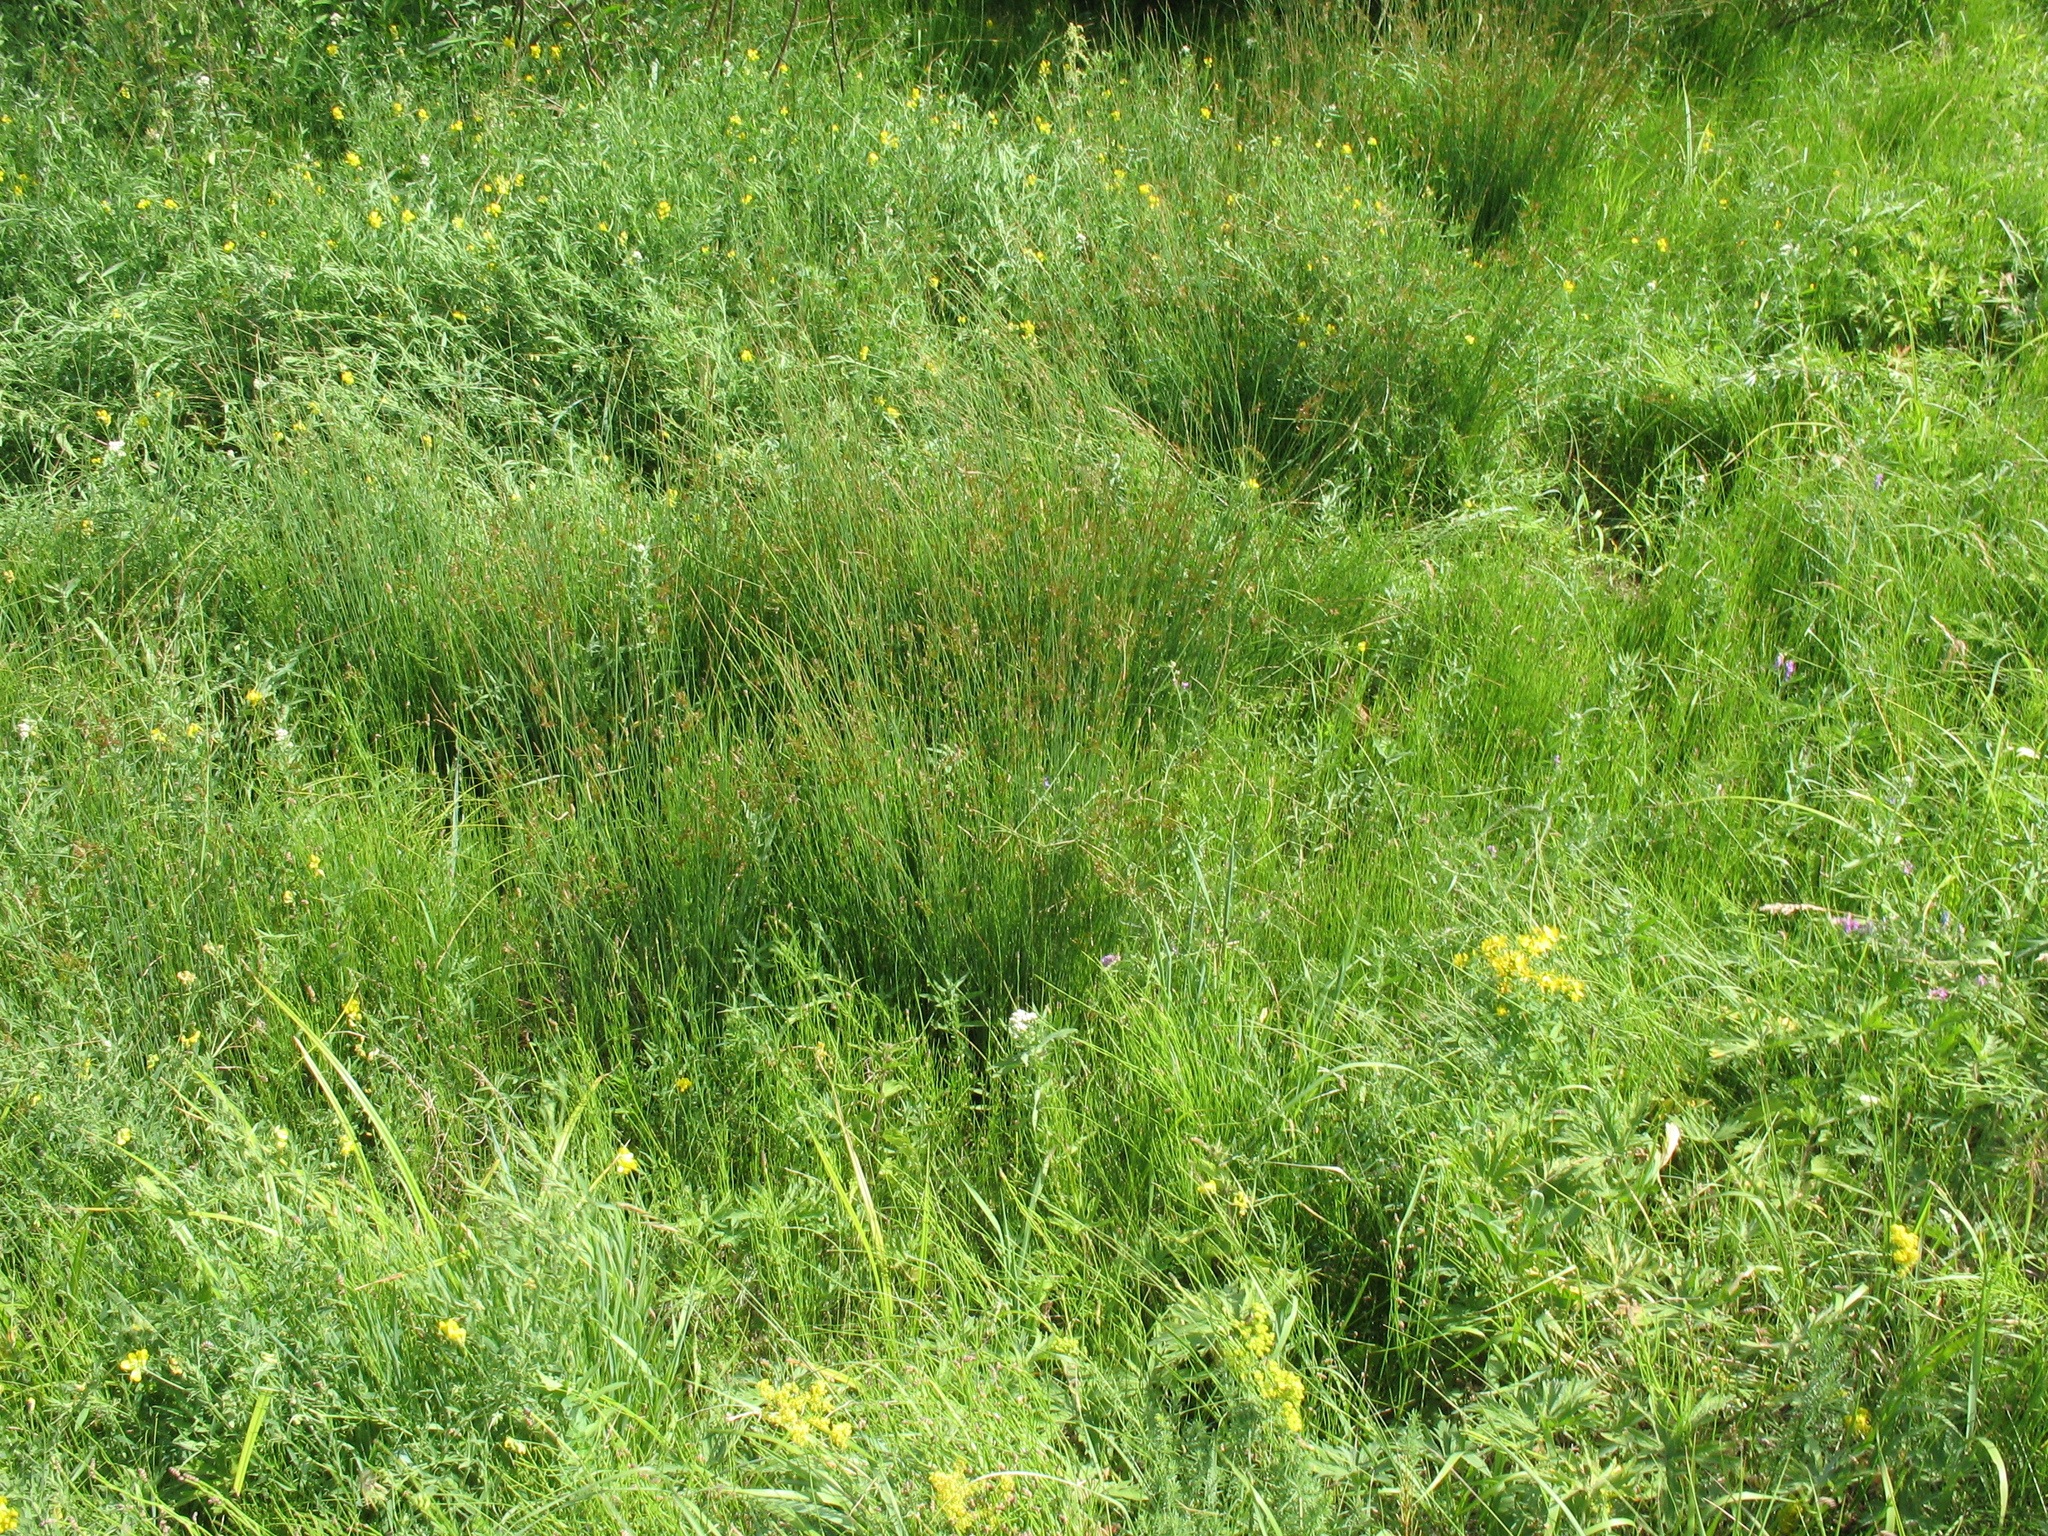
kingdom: Plantae
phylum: Tracheophyta
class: Liliopsida
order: Poales
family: Juncaceae
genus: Juncus
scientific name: Juncus inflexus
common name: Hard rush
